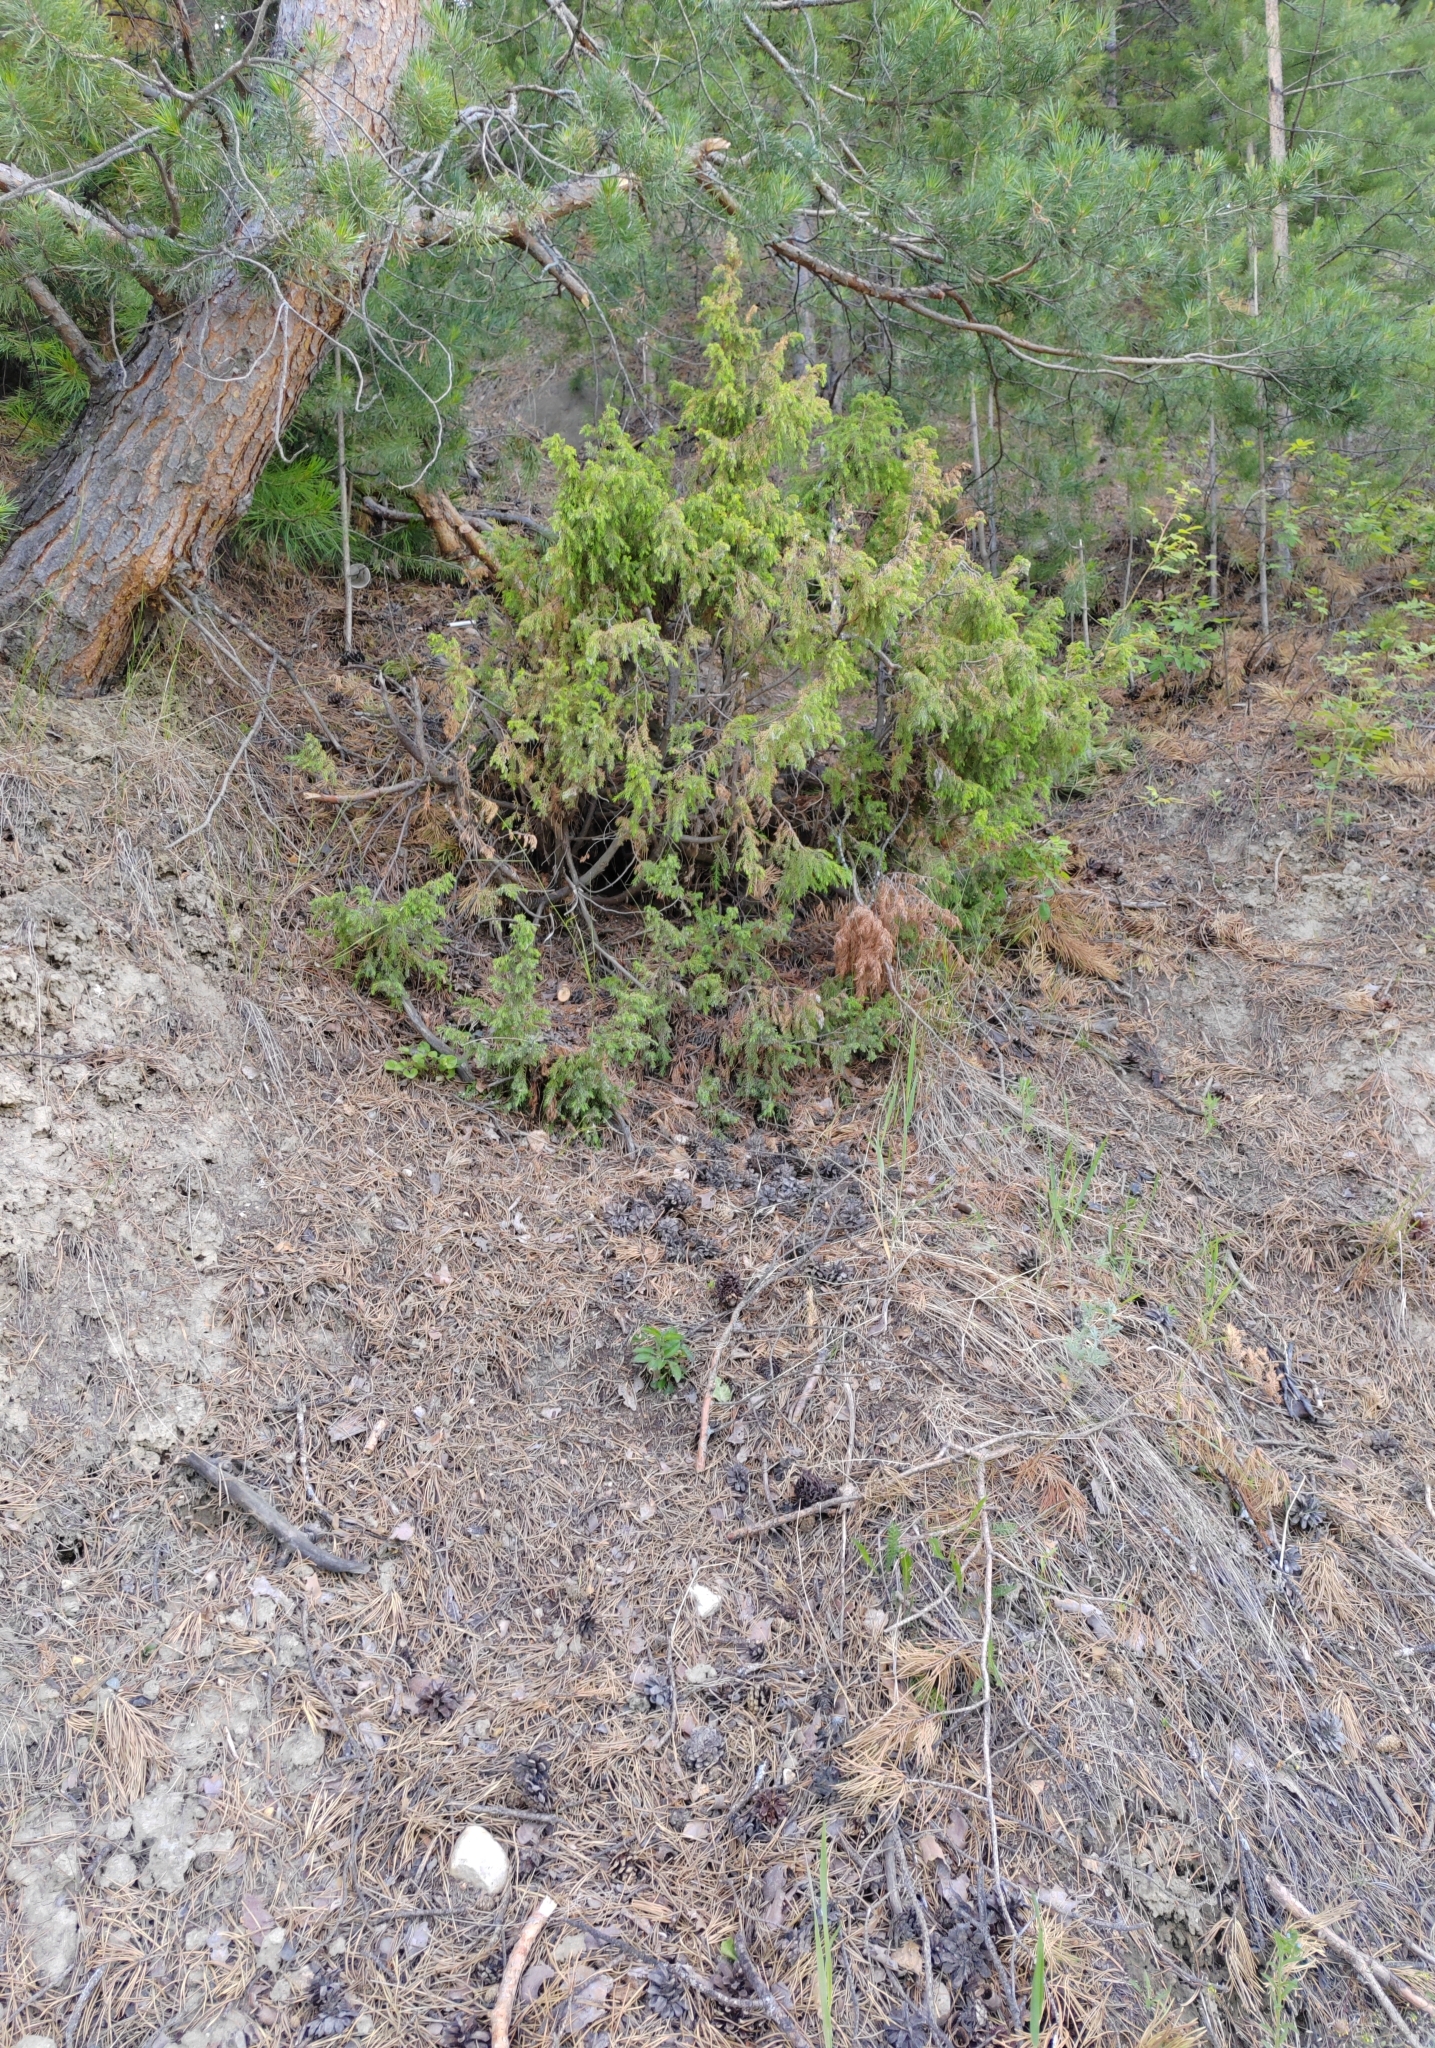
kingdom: Plantae
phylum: Tracheophyta
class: Pinopsida
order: Pinales
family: Cupressaceae
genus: Juniperus
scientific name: Juniperus communis
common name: Common juniper
